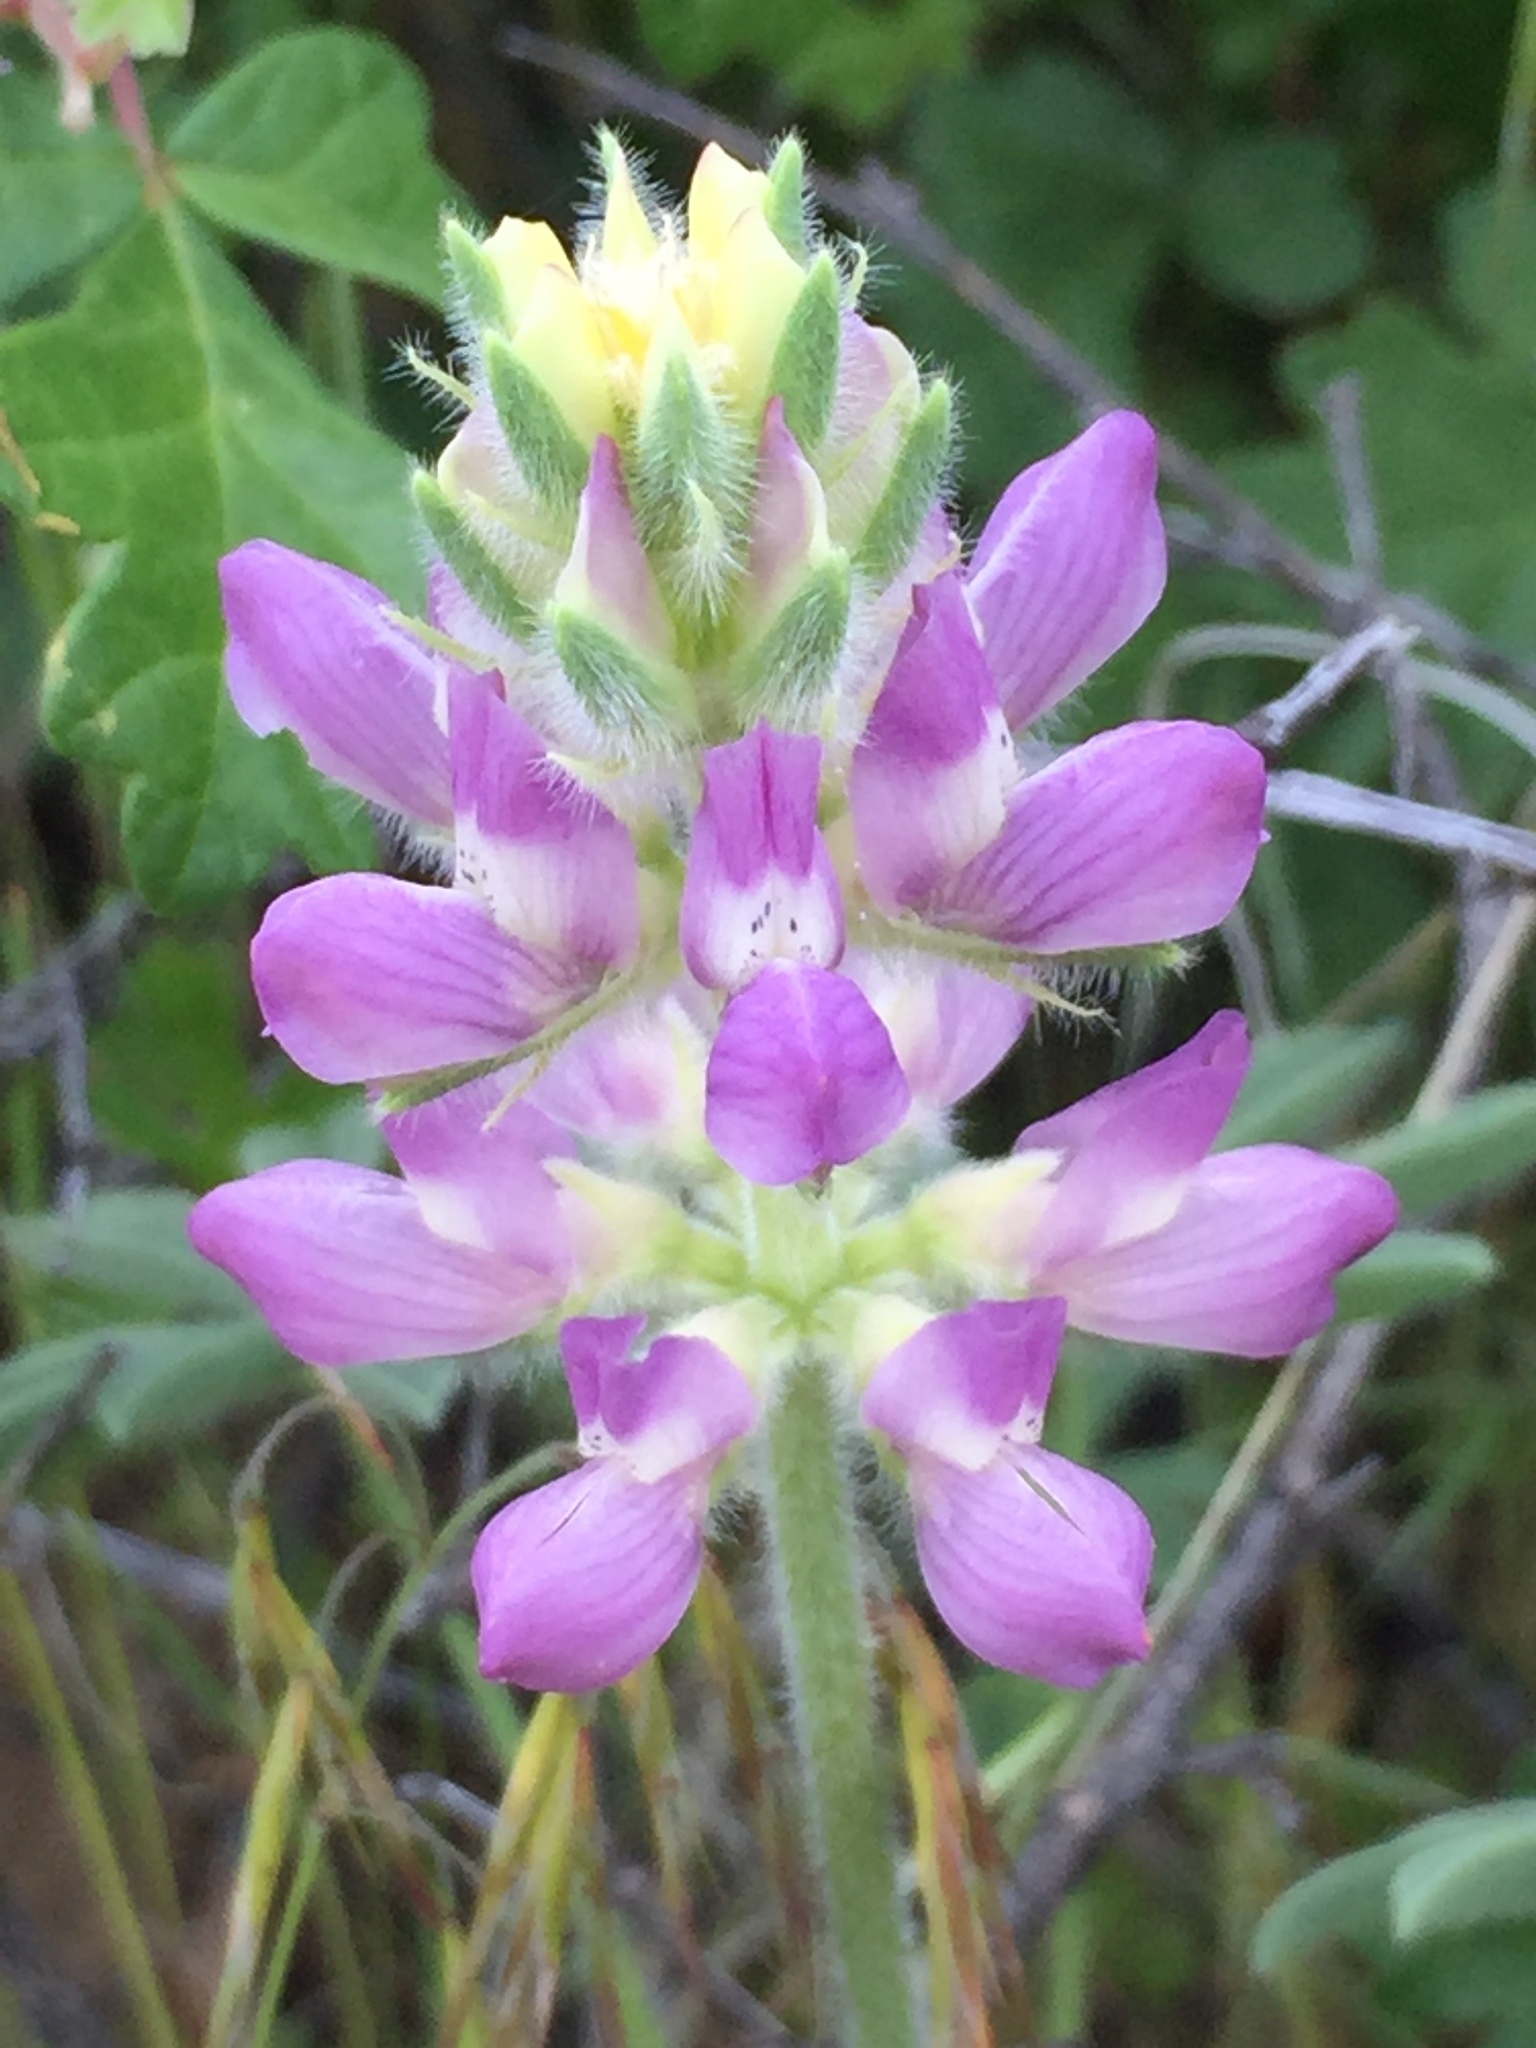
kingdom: Plantae
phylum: Tracheophyta
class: Magnoliopsida
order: Fabales
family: Fabaceae
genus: Lupinus
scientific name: Lupinus microcarpus
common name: Chick lupine
